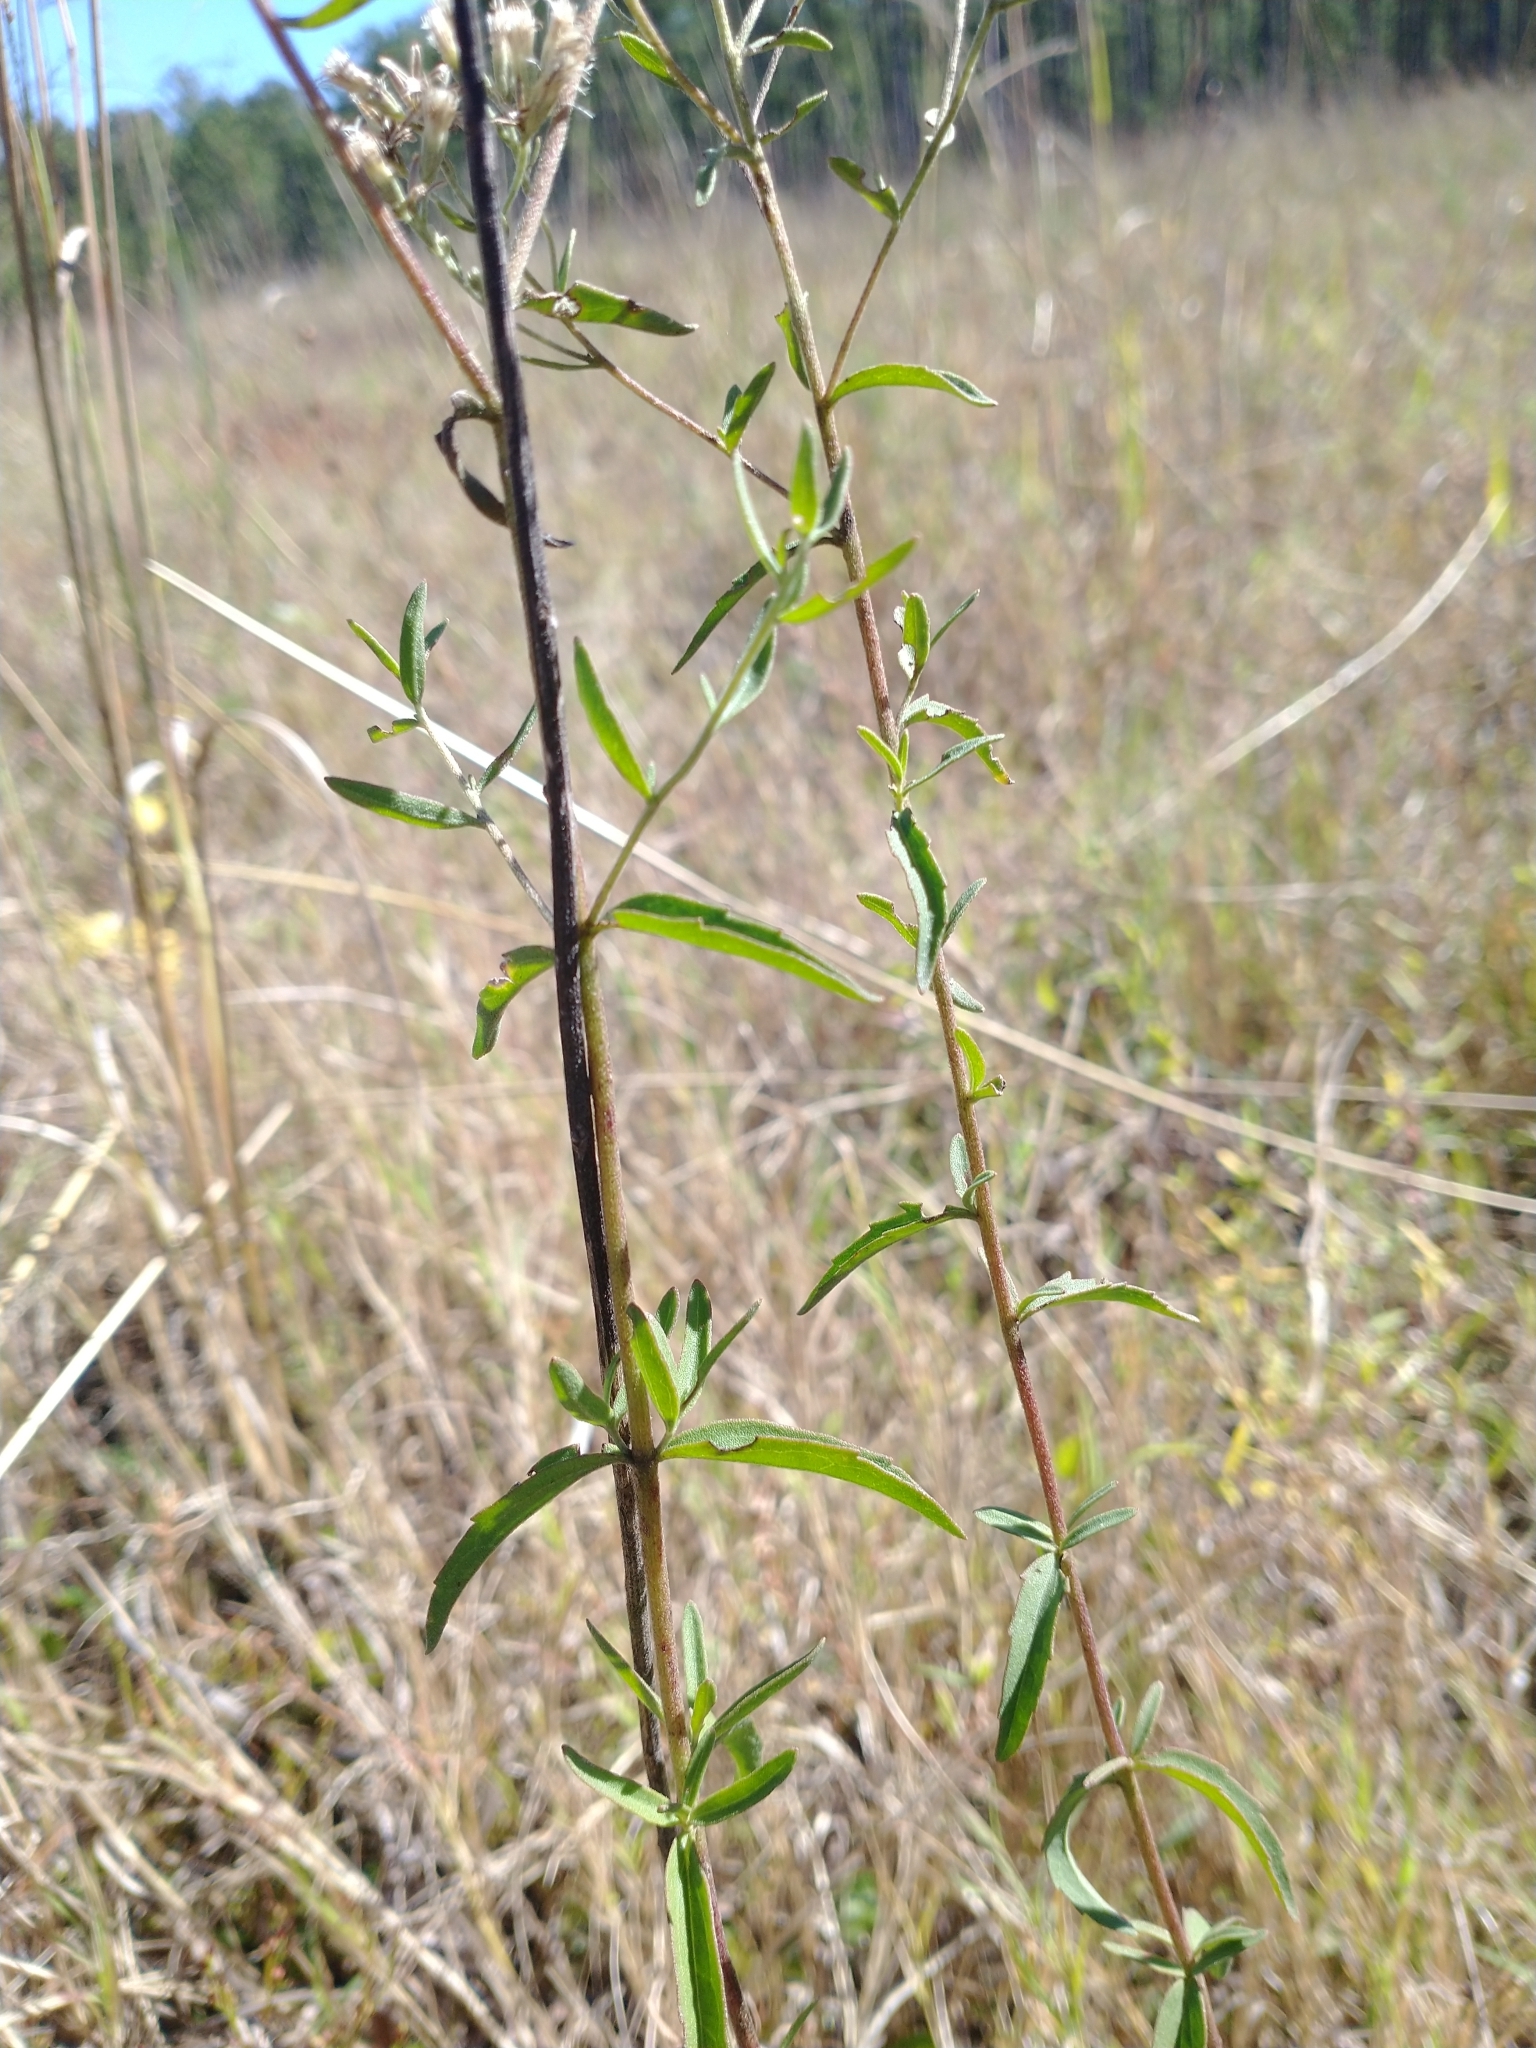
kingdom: Plantae
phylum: Tracheophyta
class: Magnoliopsida
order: Asterales
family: Asteraceae
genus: Eupatorium
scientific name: Eupatorium mohrii
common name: Mohr's thoroughwort
